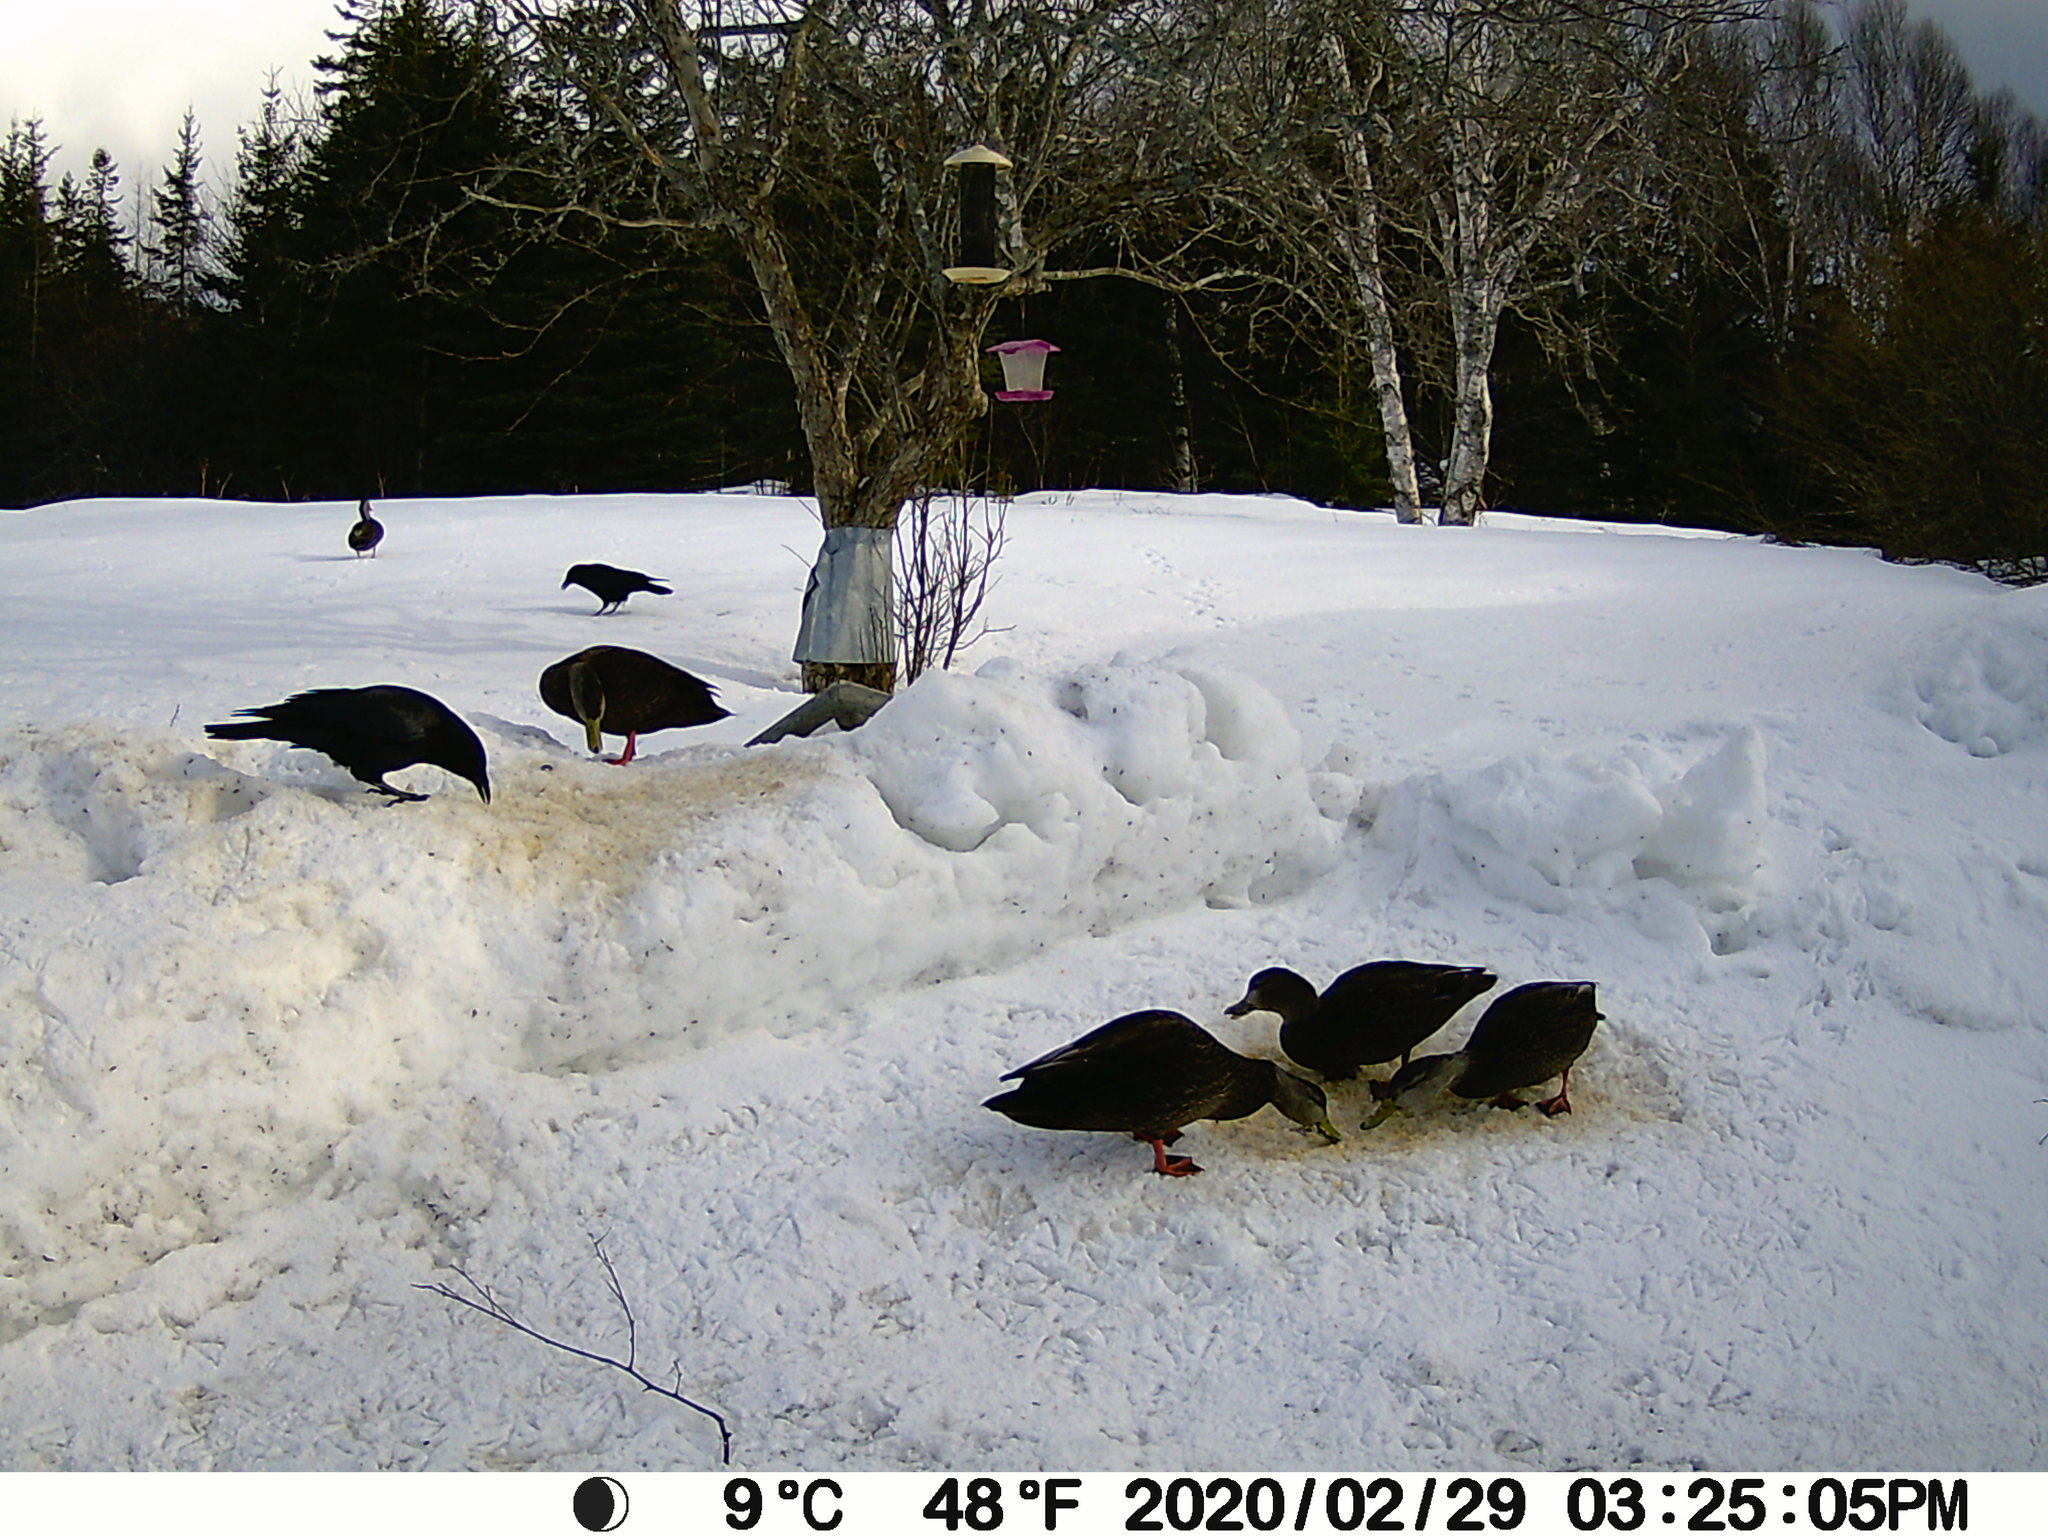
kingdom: Animalia
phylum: Chordata
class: Aves
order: Anseriformes
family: Anatidae
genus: Anas
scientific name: Anas rubripes
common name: American black duck
